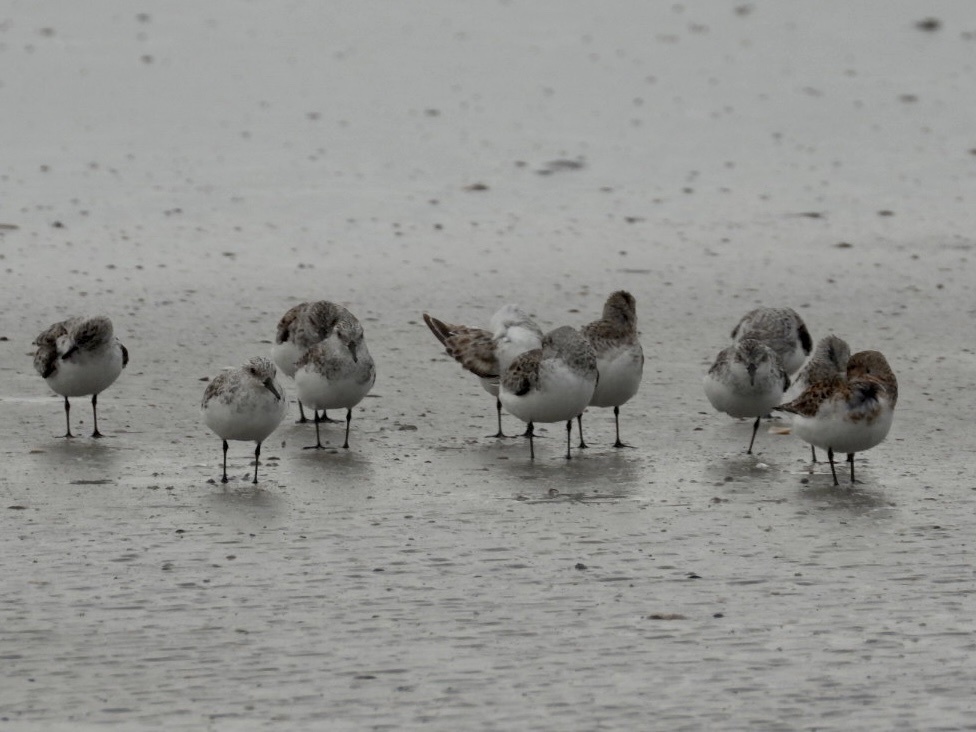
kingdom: Animalia
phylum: Chordata
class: Aves
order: Charadriiformes
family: Scolopacidae
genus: Calidris
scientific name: Calidris alba
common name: Sanderling
